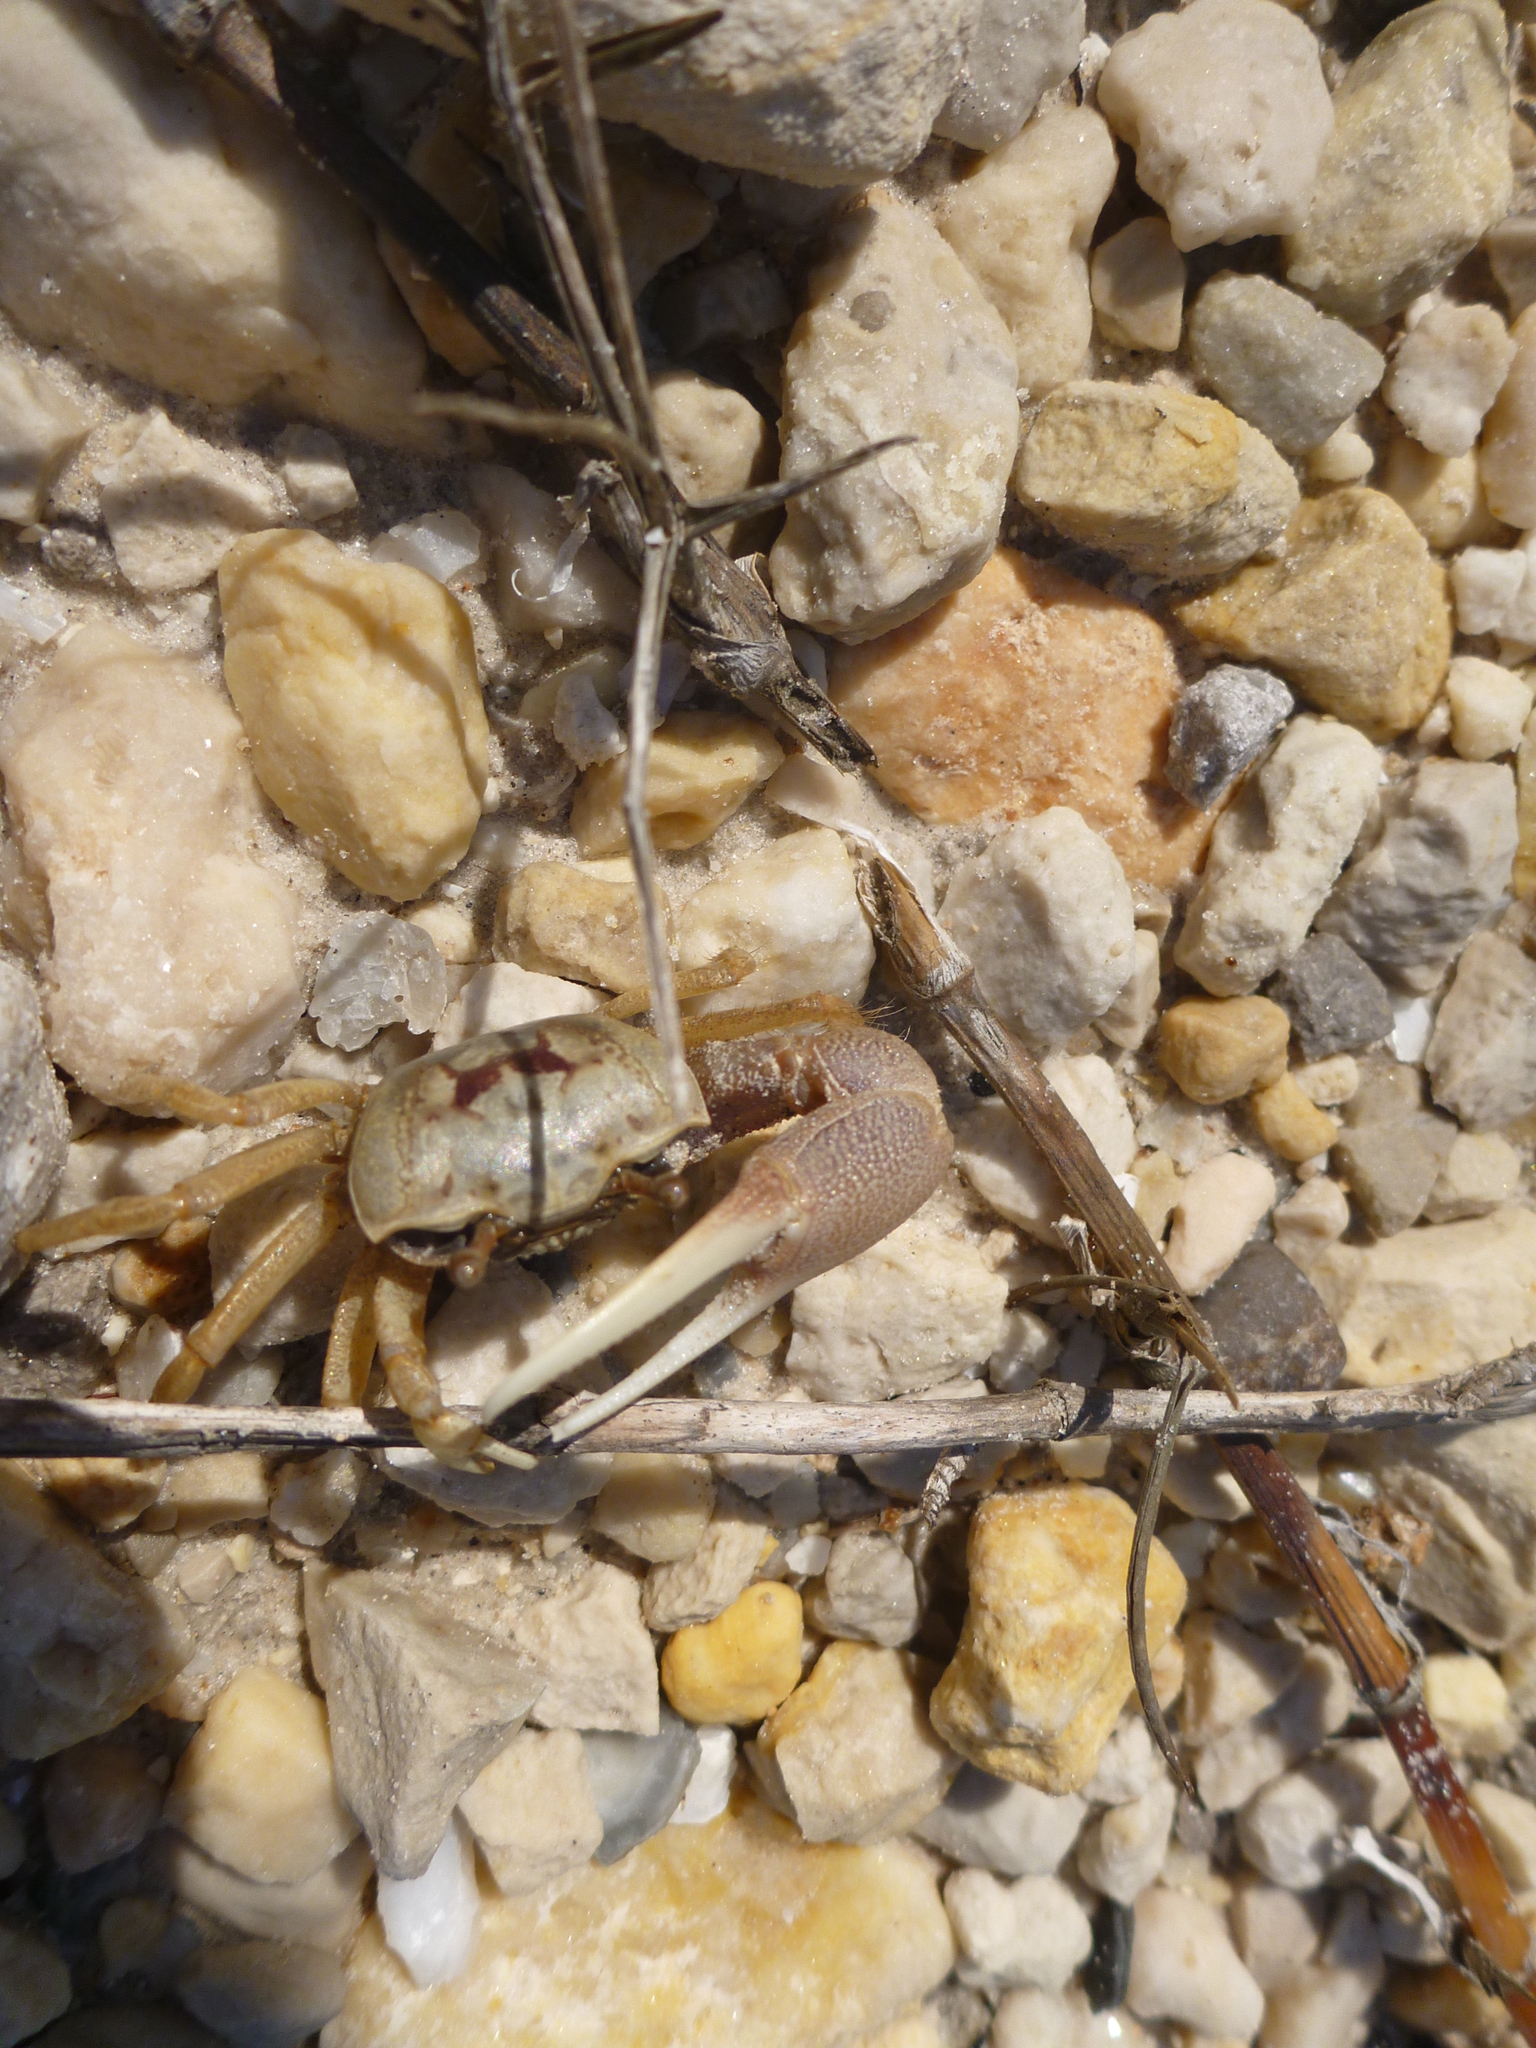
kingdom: Animalia
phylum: Arthropoda
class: Malacostraca
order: Decapoda
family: Ocypodidae
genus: Leptuca
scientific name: Leptuca panacea
